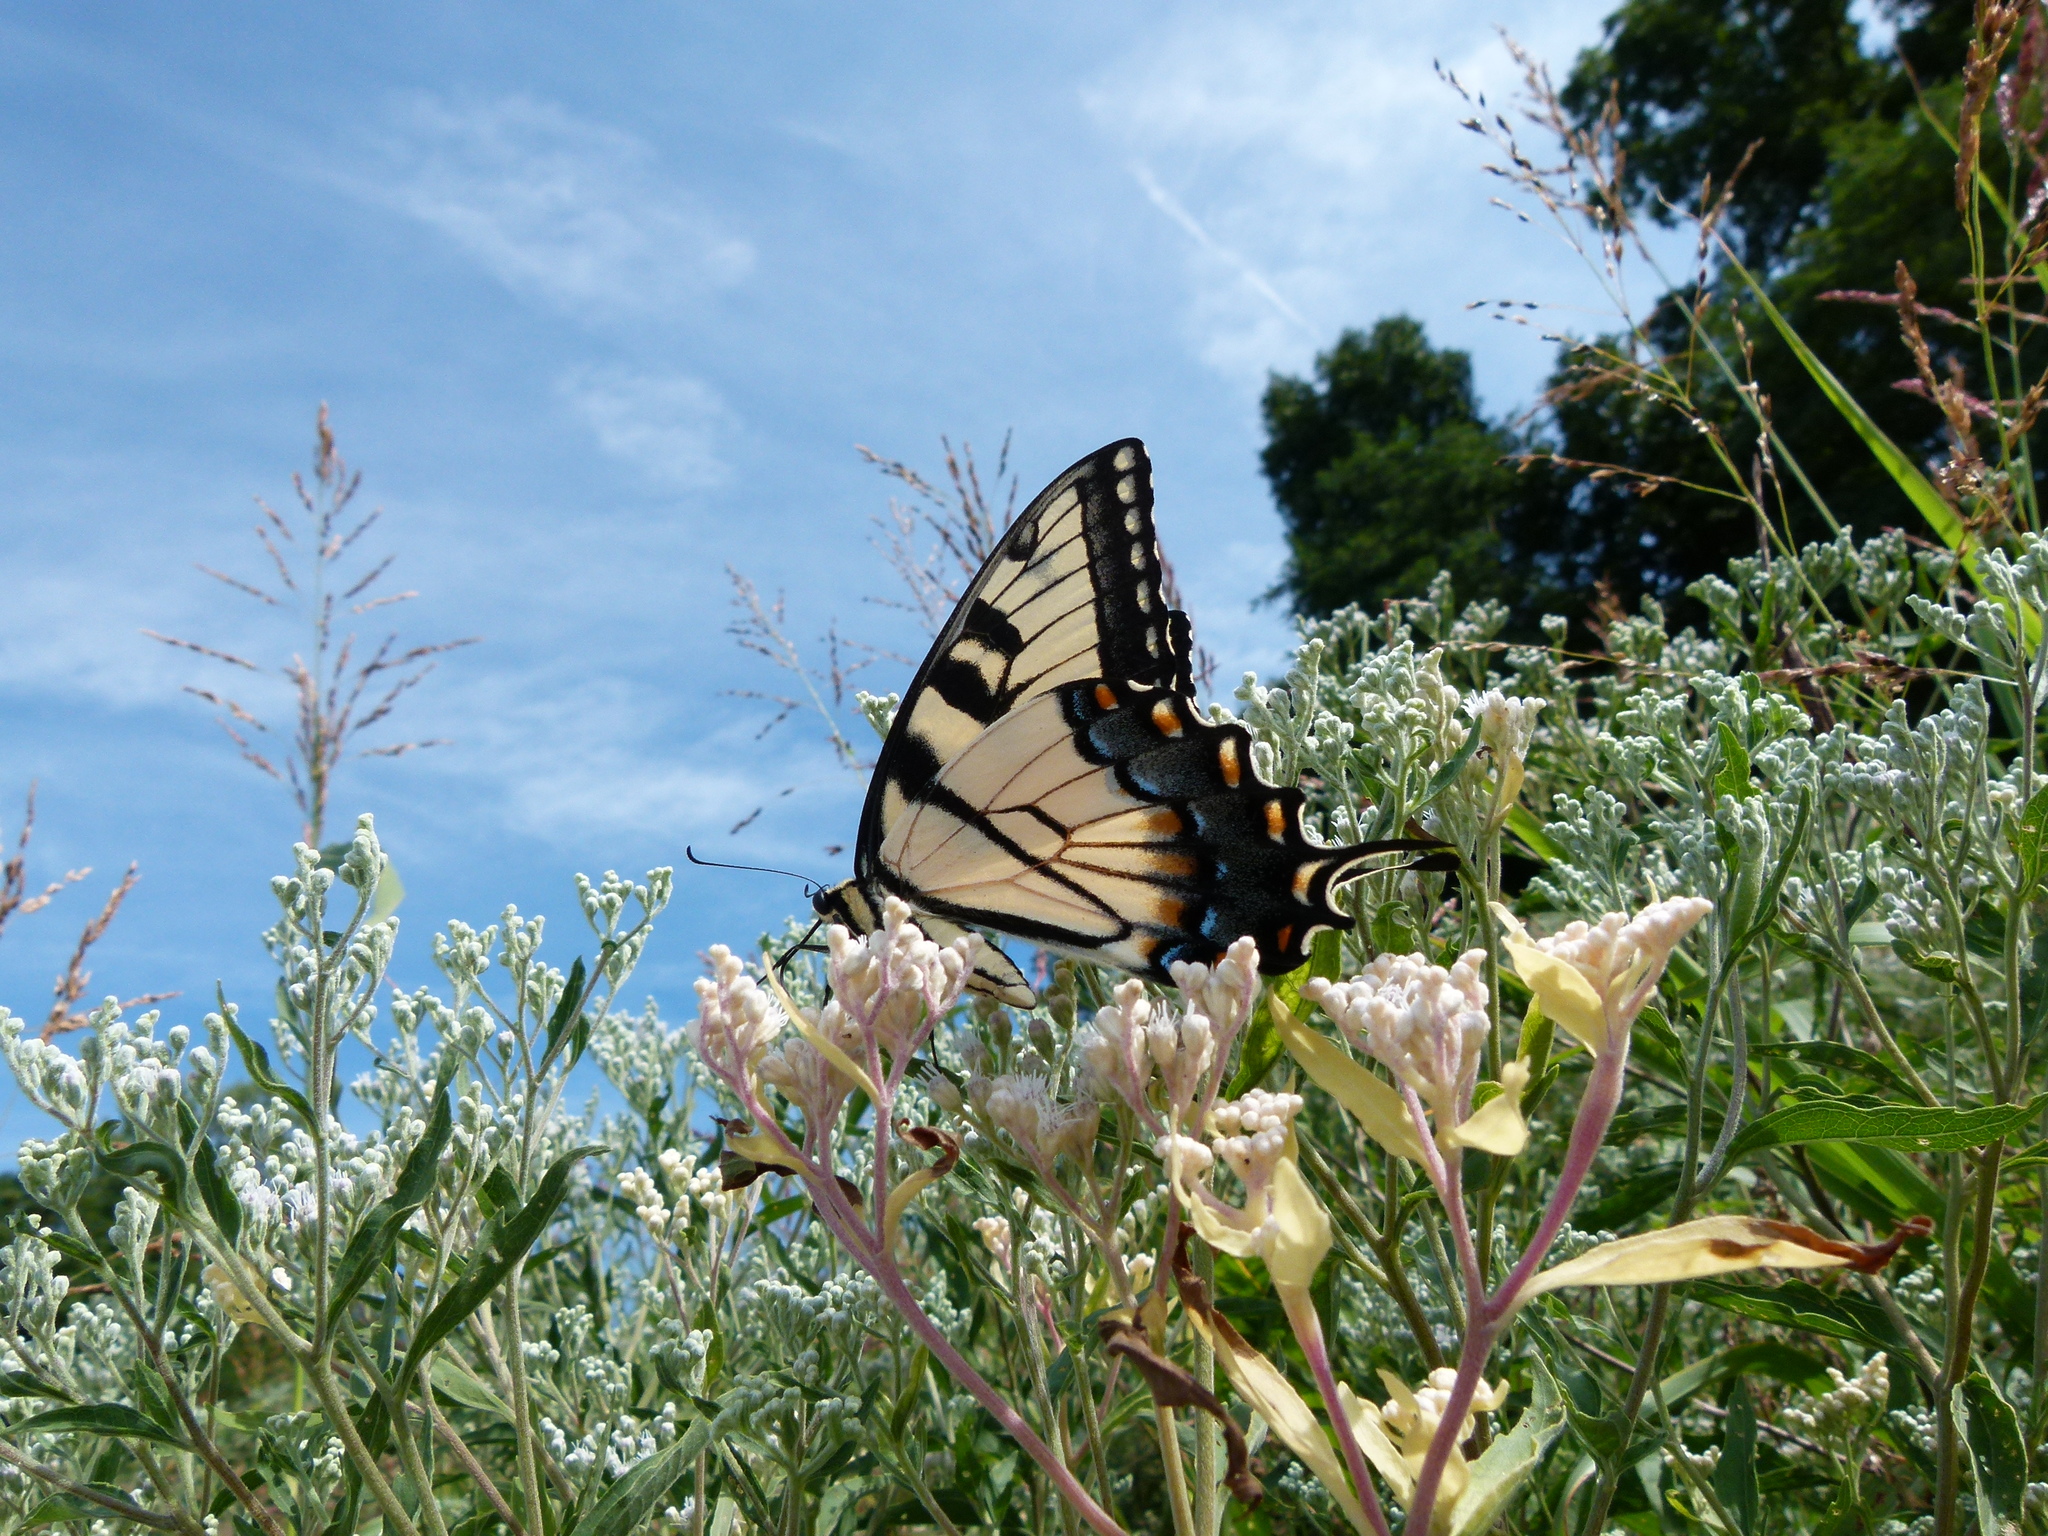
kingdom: Animalia
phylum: Arthropoda
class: Insecta
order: Lepidoptera
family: Papilionidae
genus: Papilio
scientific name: Papilio glaucus
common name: Tiger swallowtail
